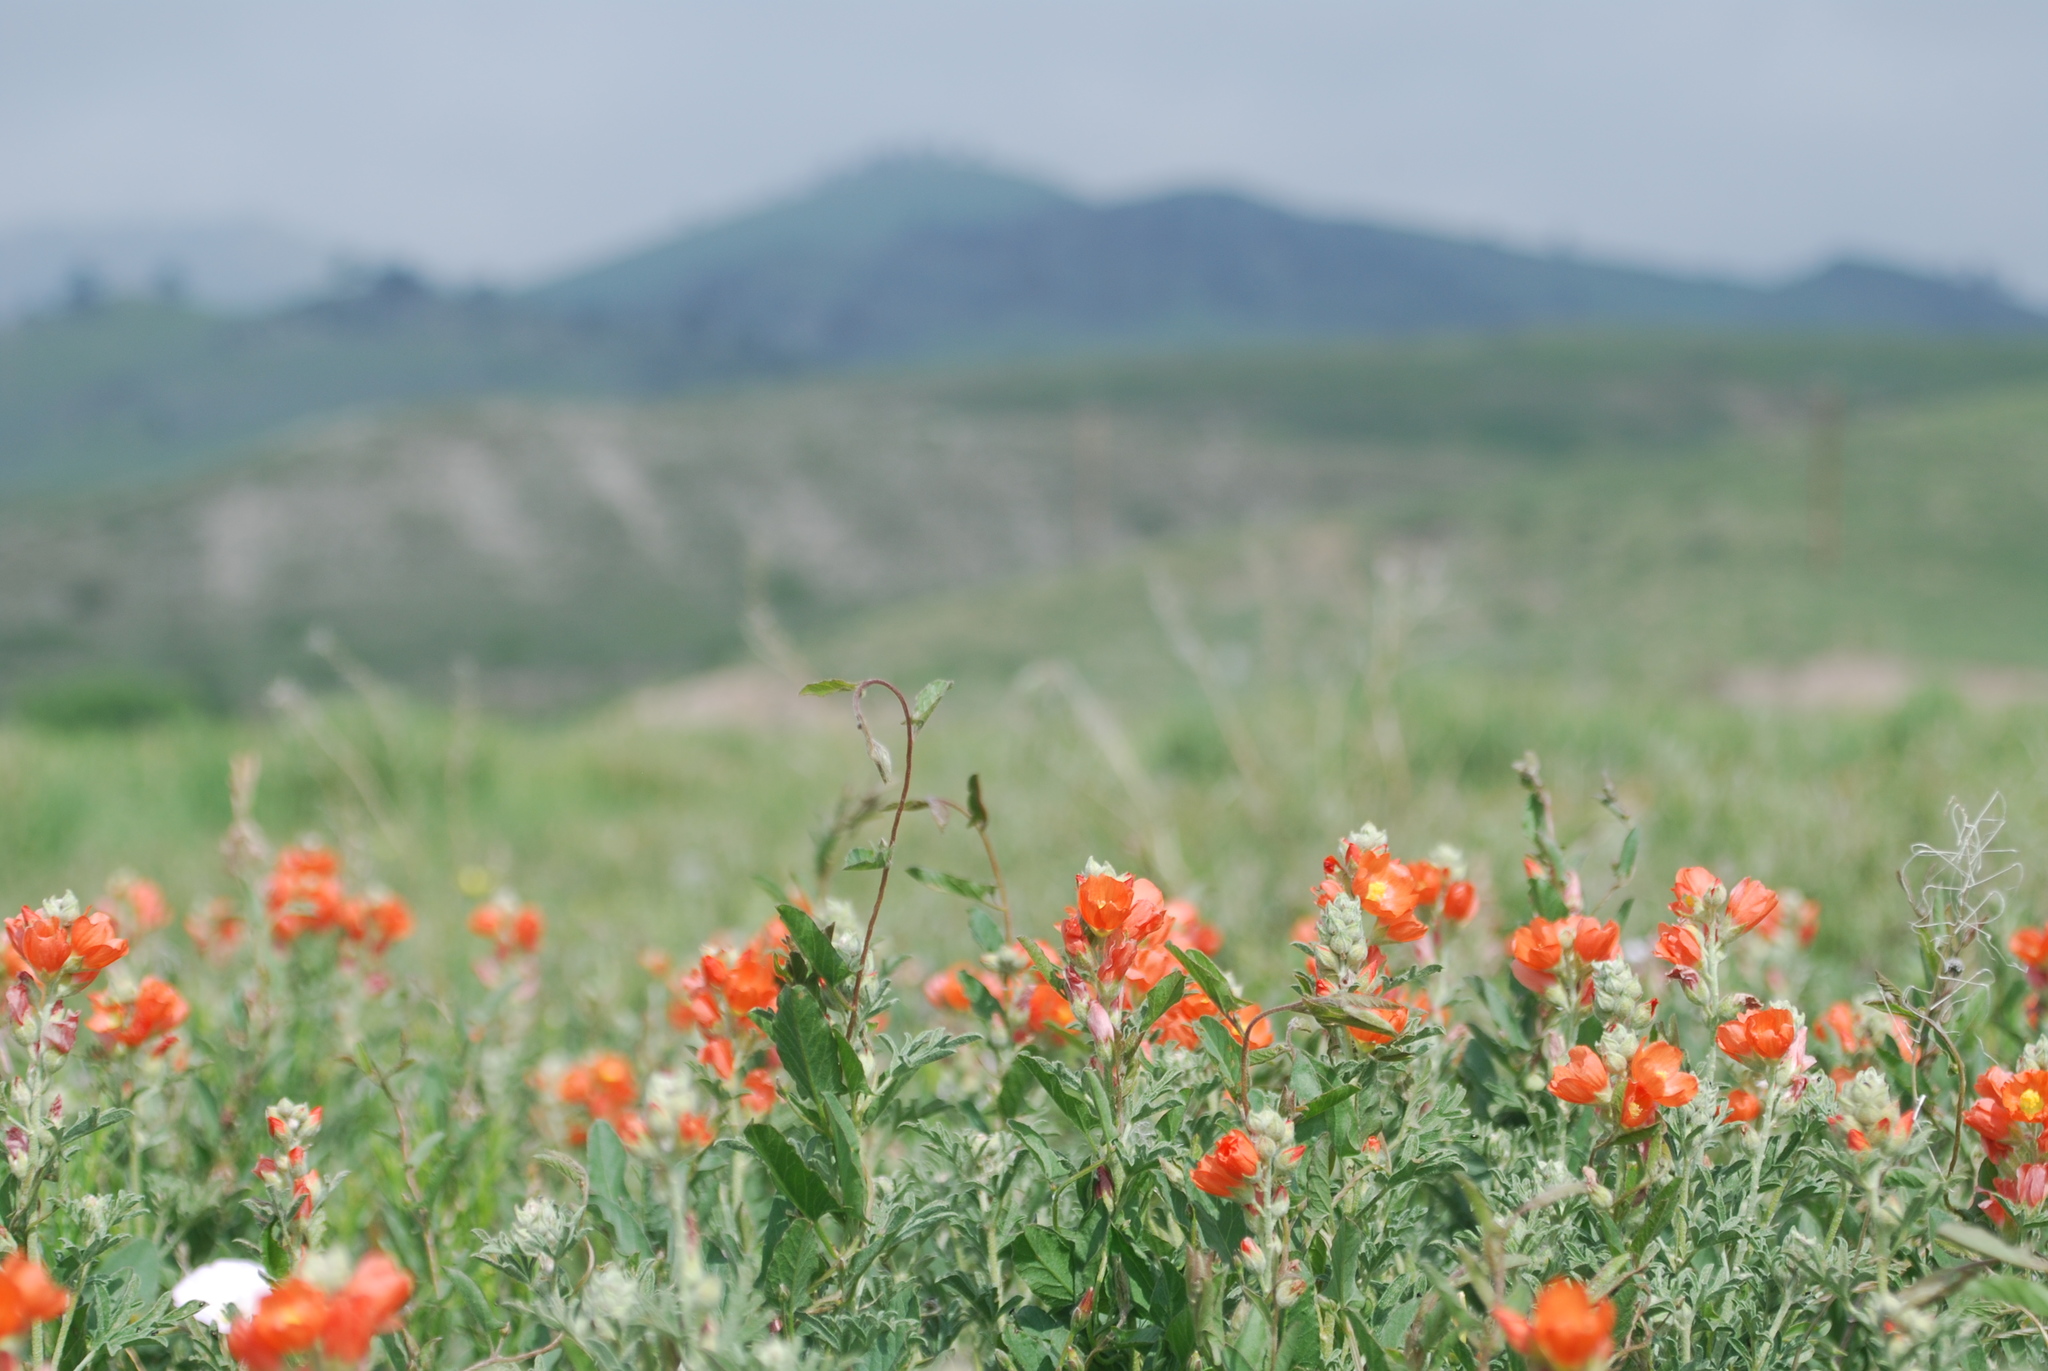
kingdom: Plantae
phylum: Tracheophyta
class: Magnoliopsida
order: Malvales
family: Malvaceae
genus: Sphaeralcea
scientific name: Sphaeralcea coccinea
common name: Moss-rose
